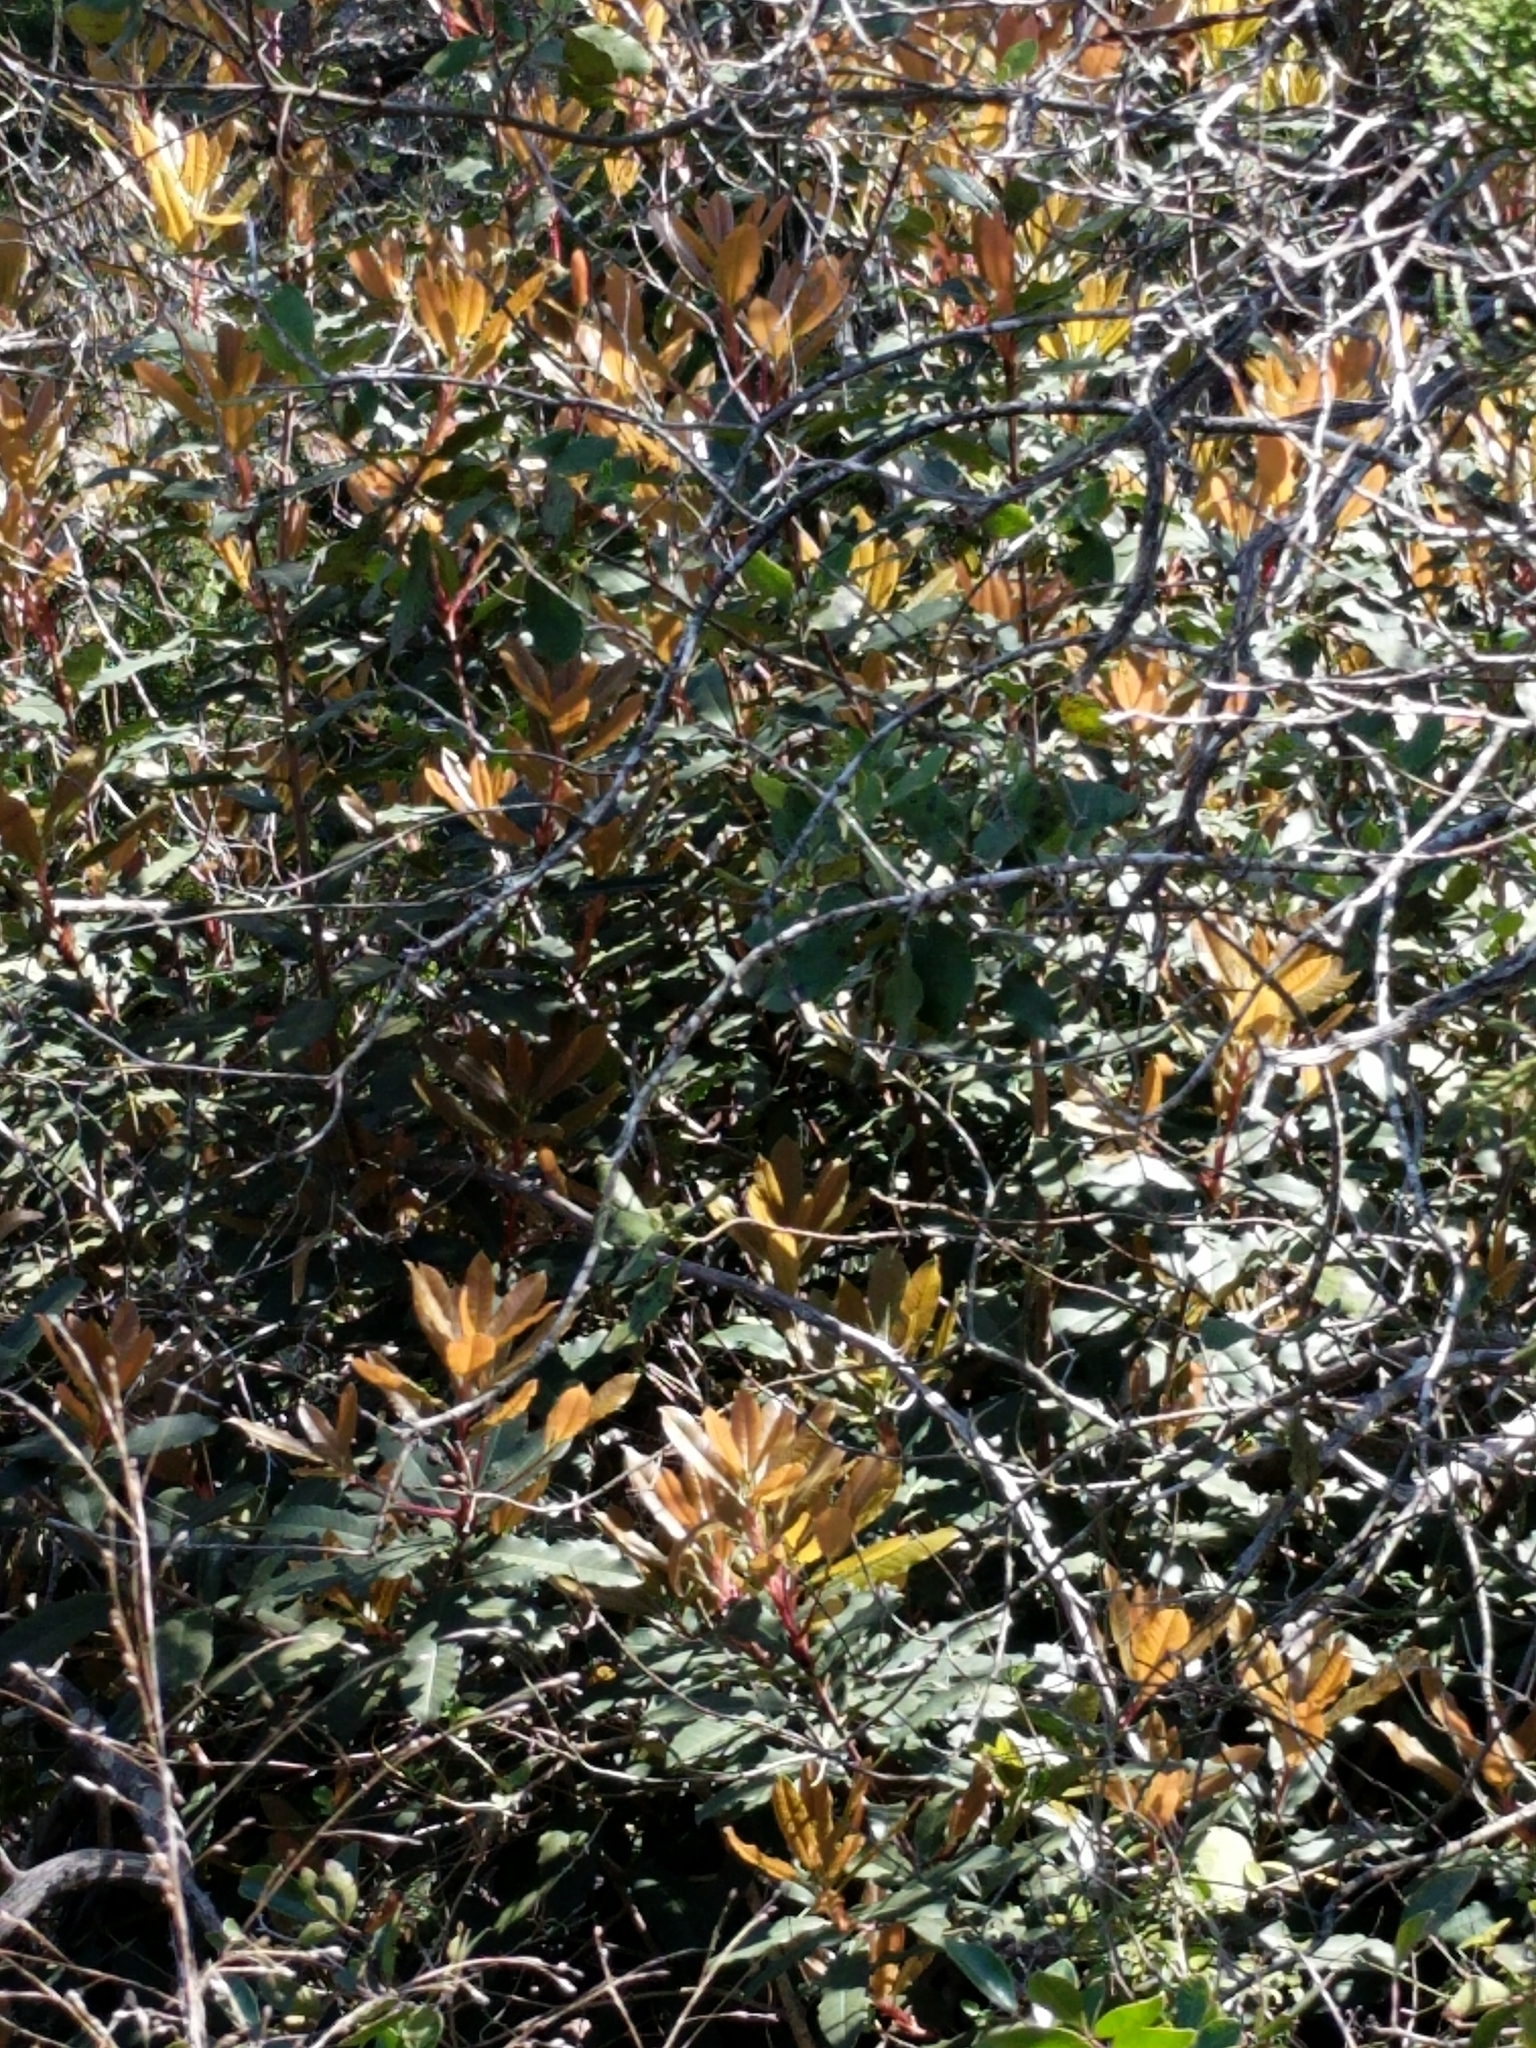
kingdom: Plantae
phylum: Tracheophyta
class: Magnoliopsida
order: Rosales
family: Rosaceae
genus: Photinia
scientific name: Photinia serratifolia
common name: Taiwanese photinia
